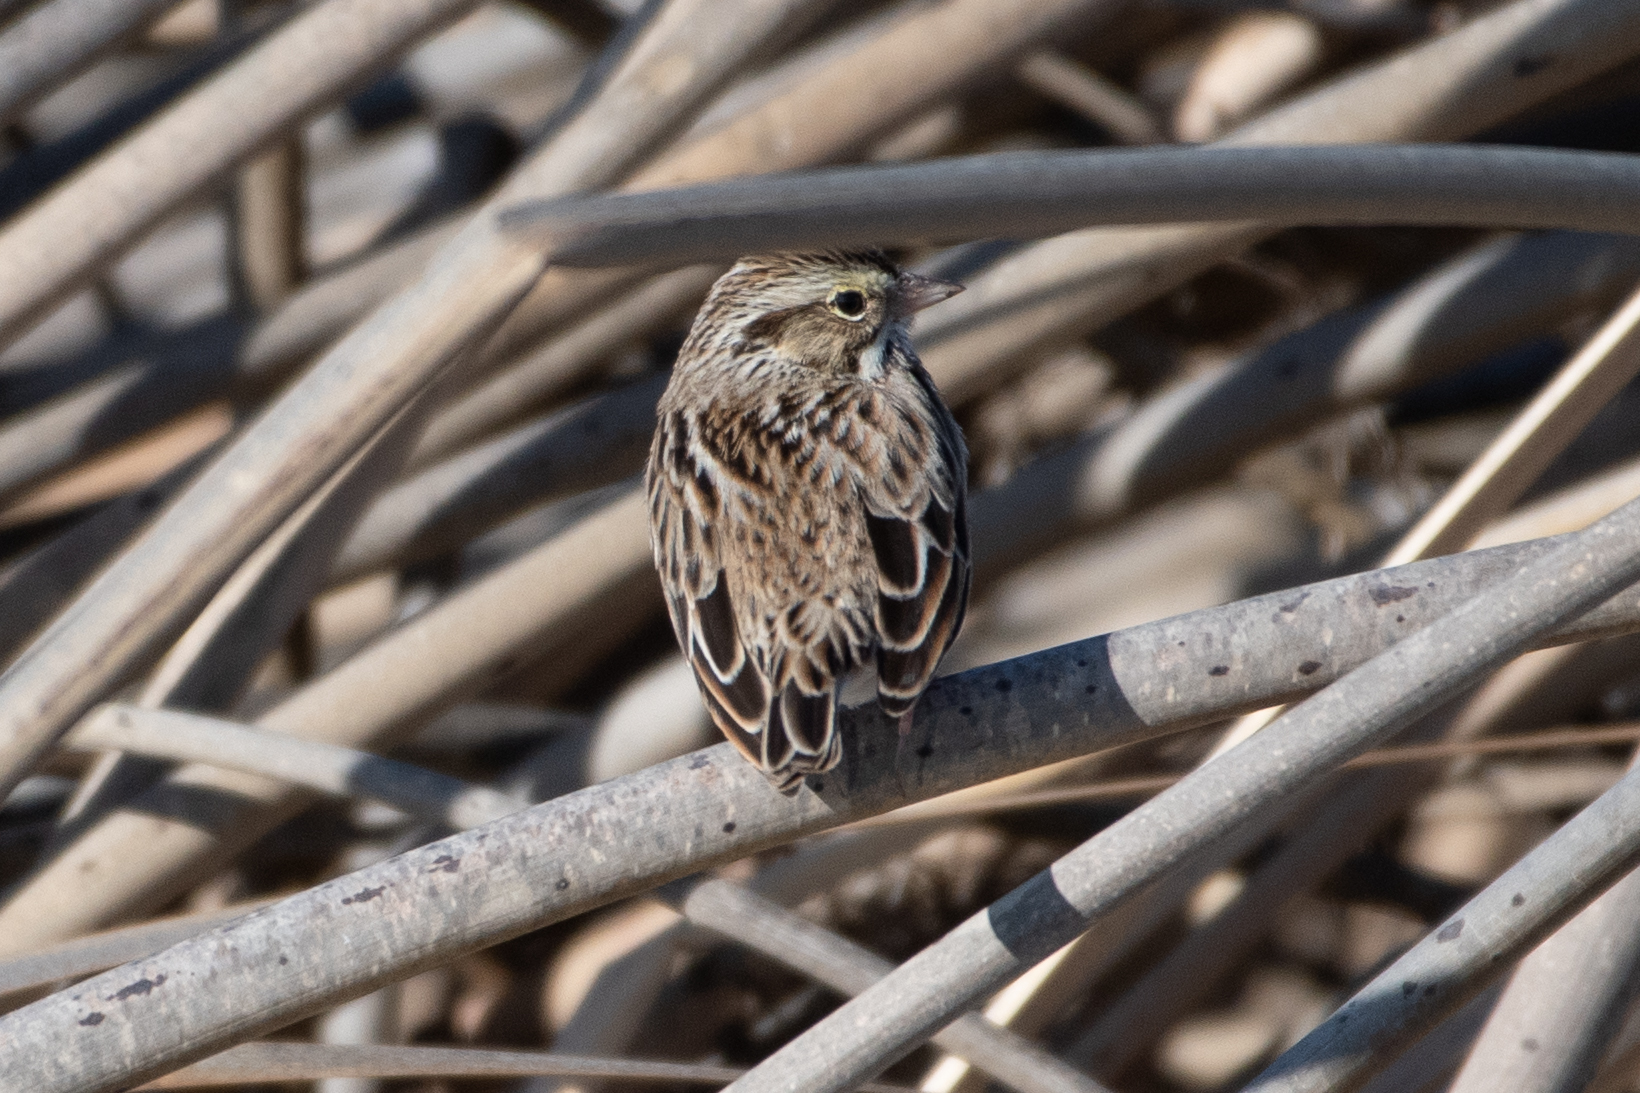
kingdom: Animalia
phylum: Chordata
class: Aves
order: Passeriformes
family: Passerellidae
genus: Passerculus
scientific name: Passerculus sandwichensis
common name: Savannah sparrow
